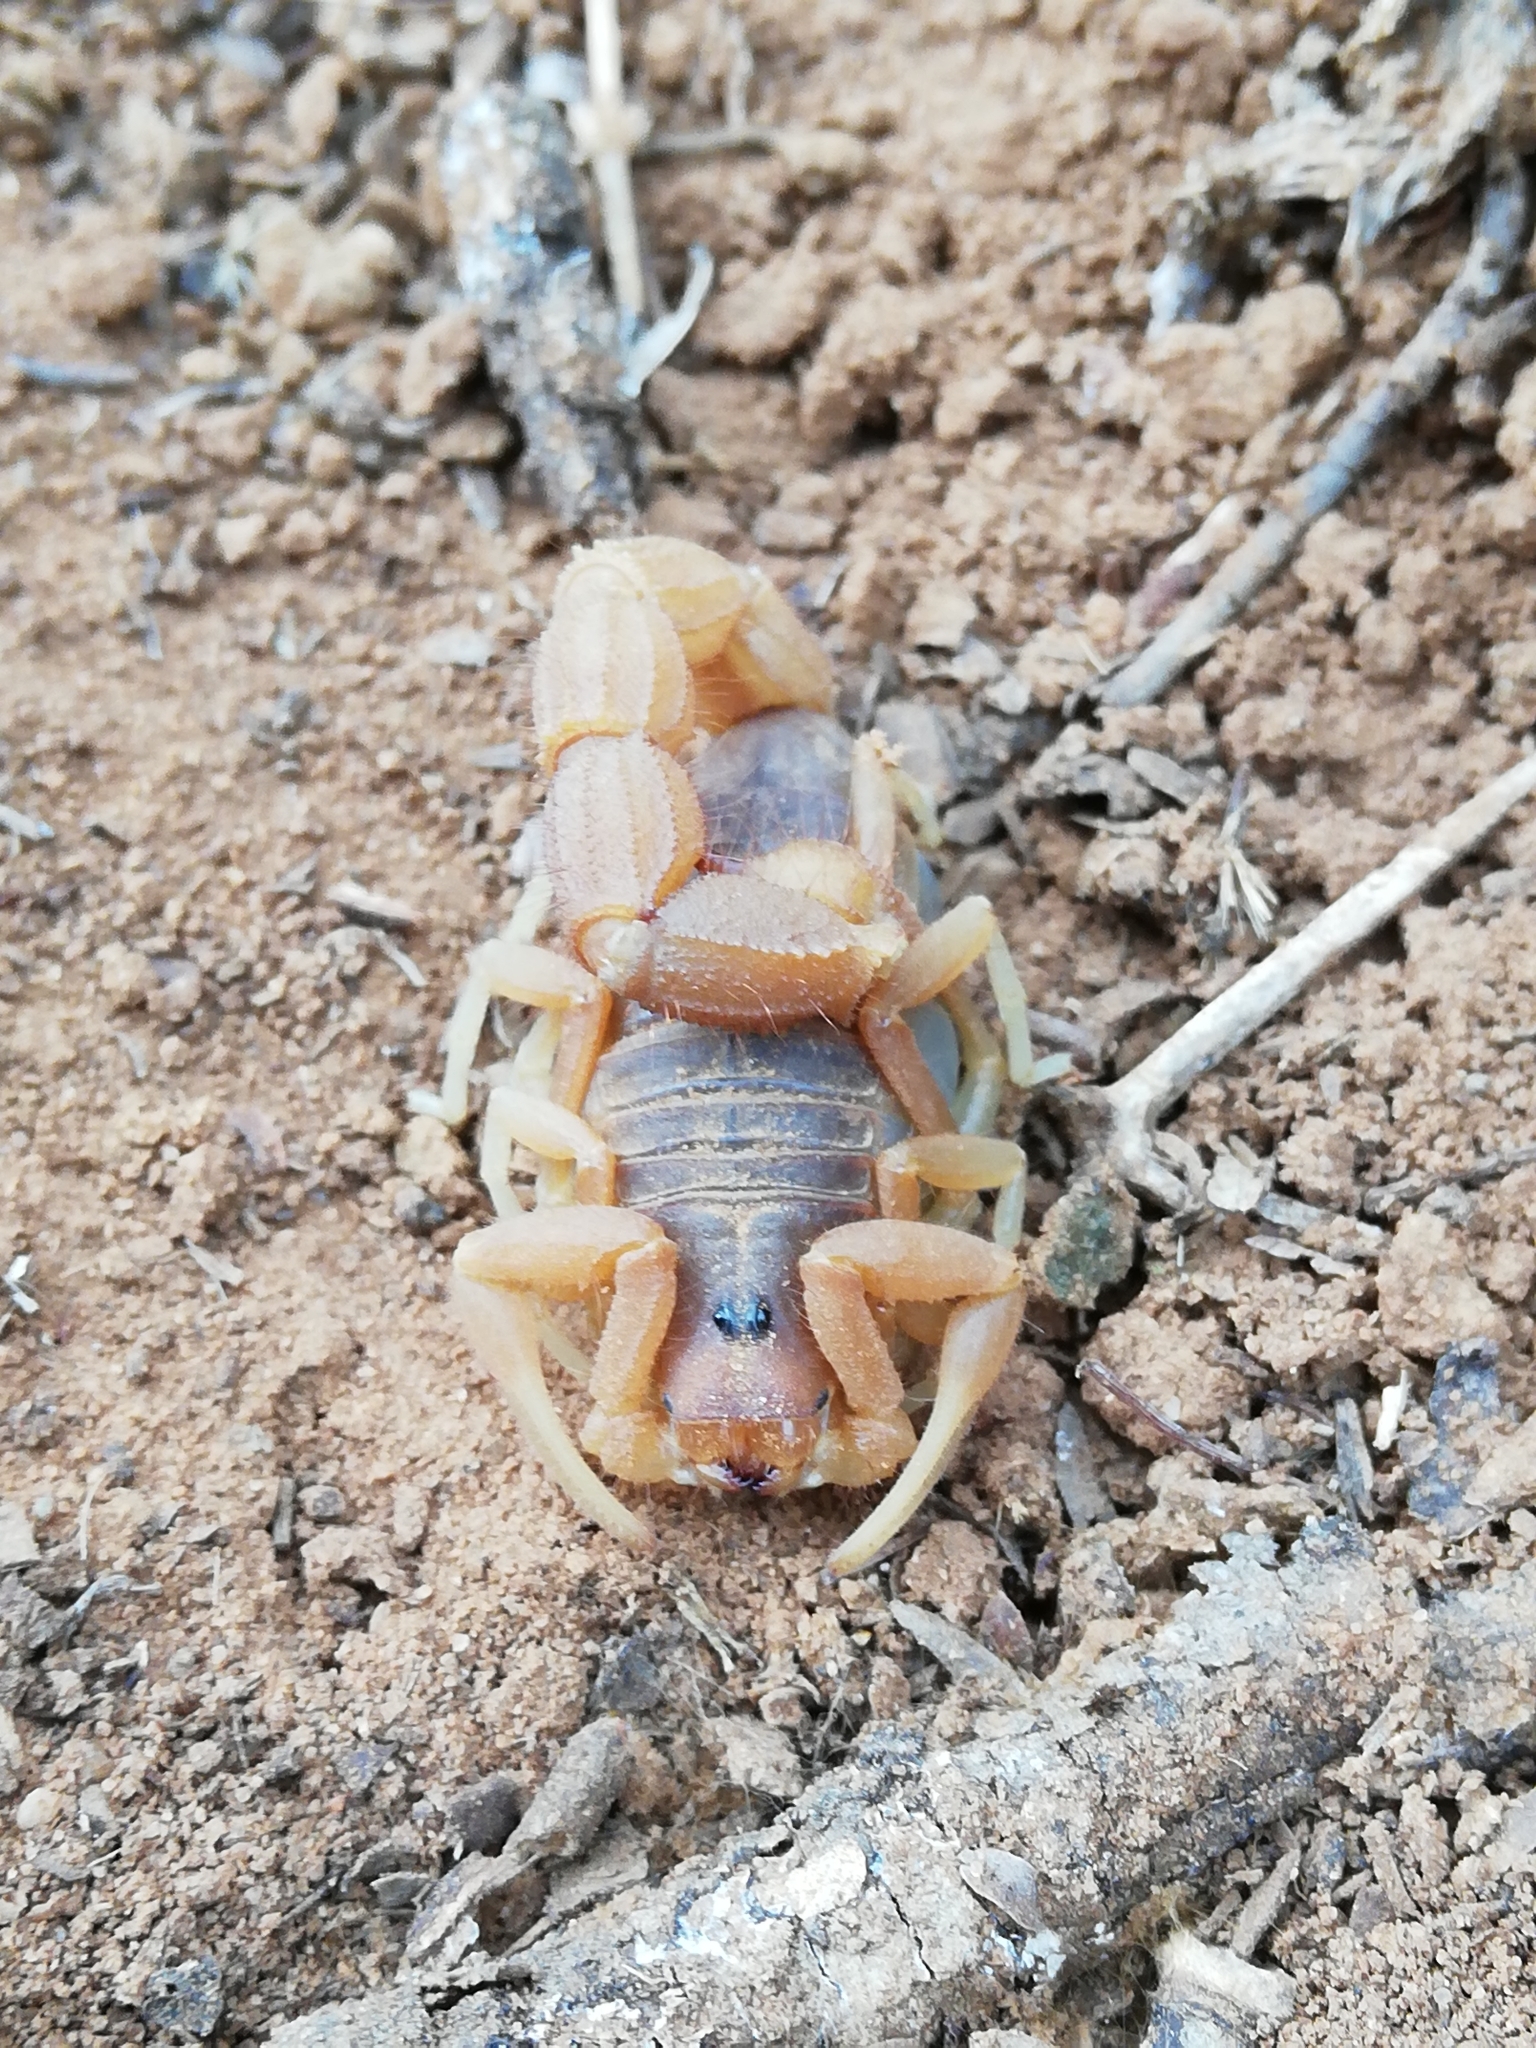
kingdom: Animalia
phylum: Arthropoda
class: Arachnida
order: Scorpiones
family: Buthidae
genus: Parabuthus
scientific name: Parabuthus planicauda
